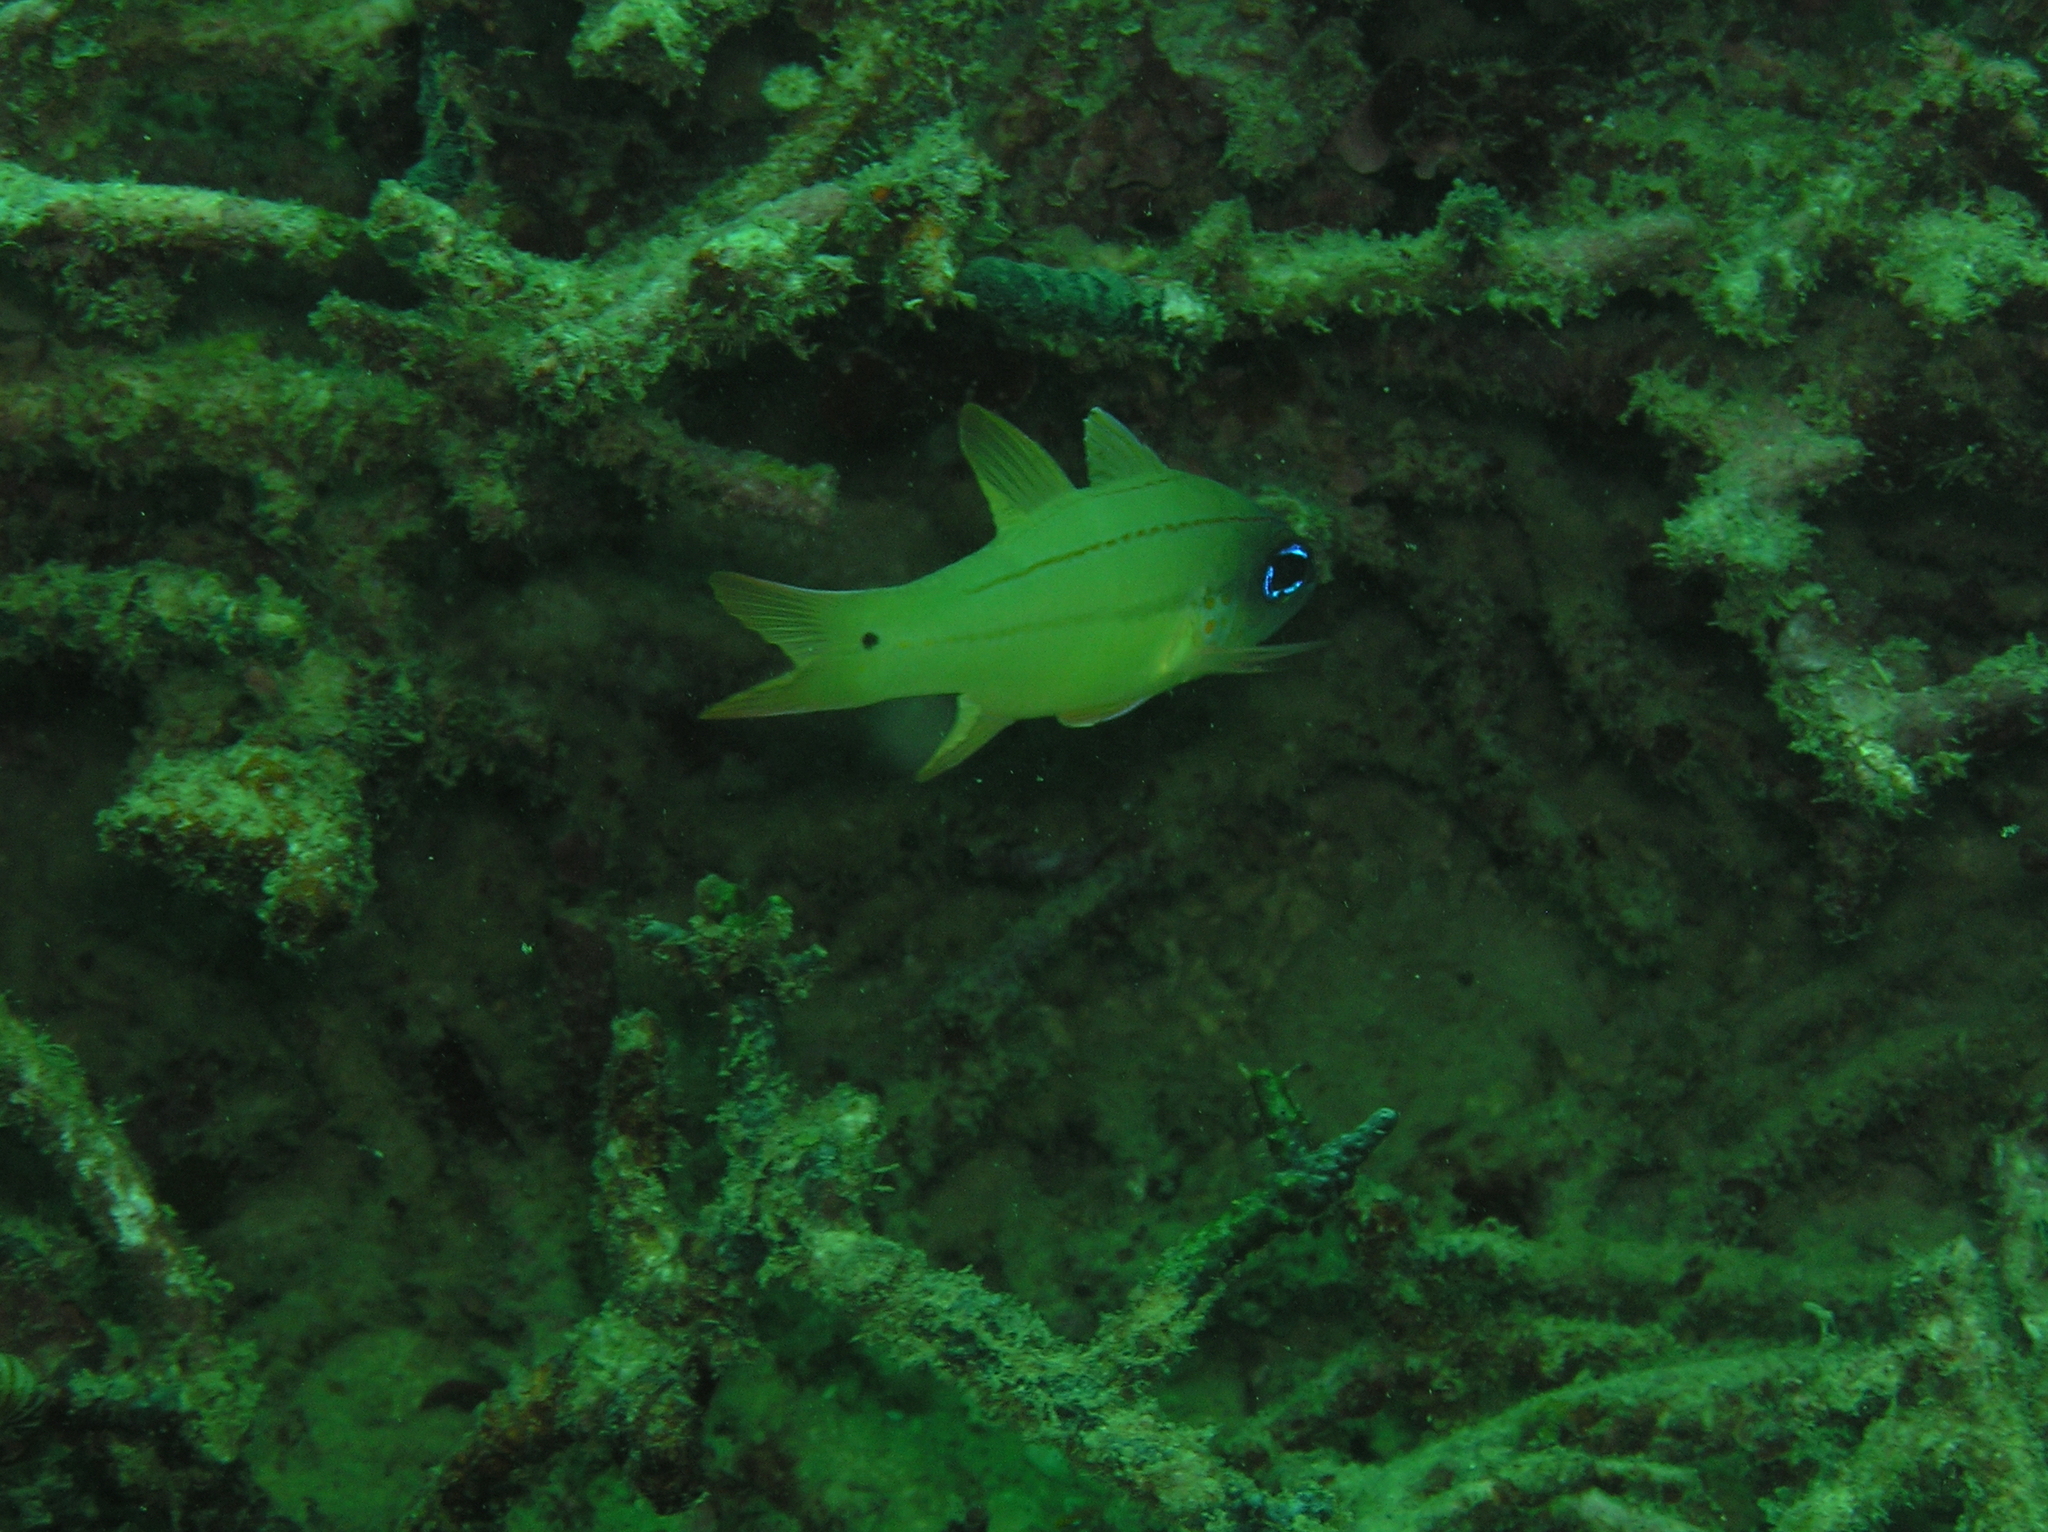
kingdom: Animalia
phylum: Chordata
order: Perciformes
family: Apogonidae
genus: Ostorhinchus
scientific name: Ostorhinchus chrysopomus
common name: Cheek-spot cardinalfish
